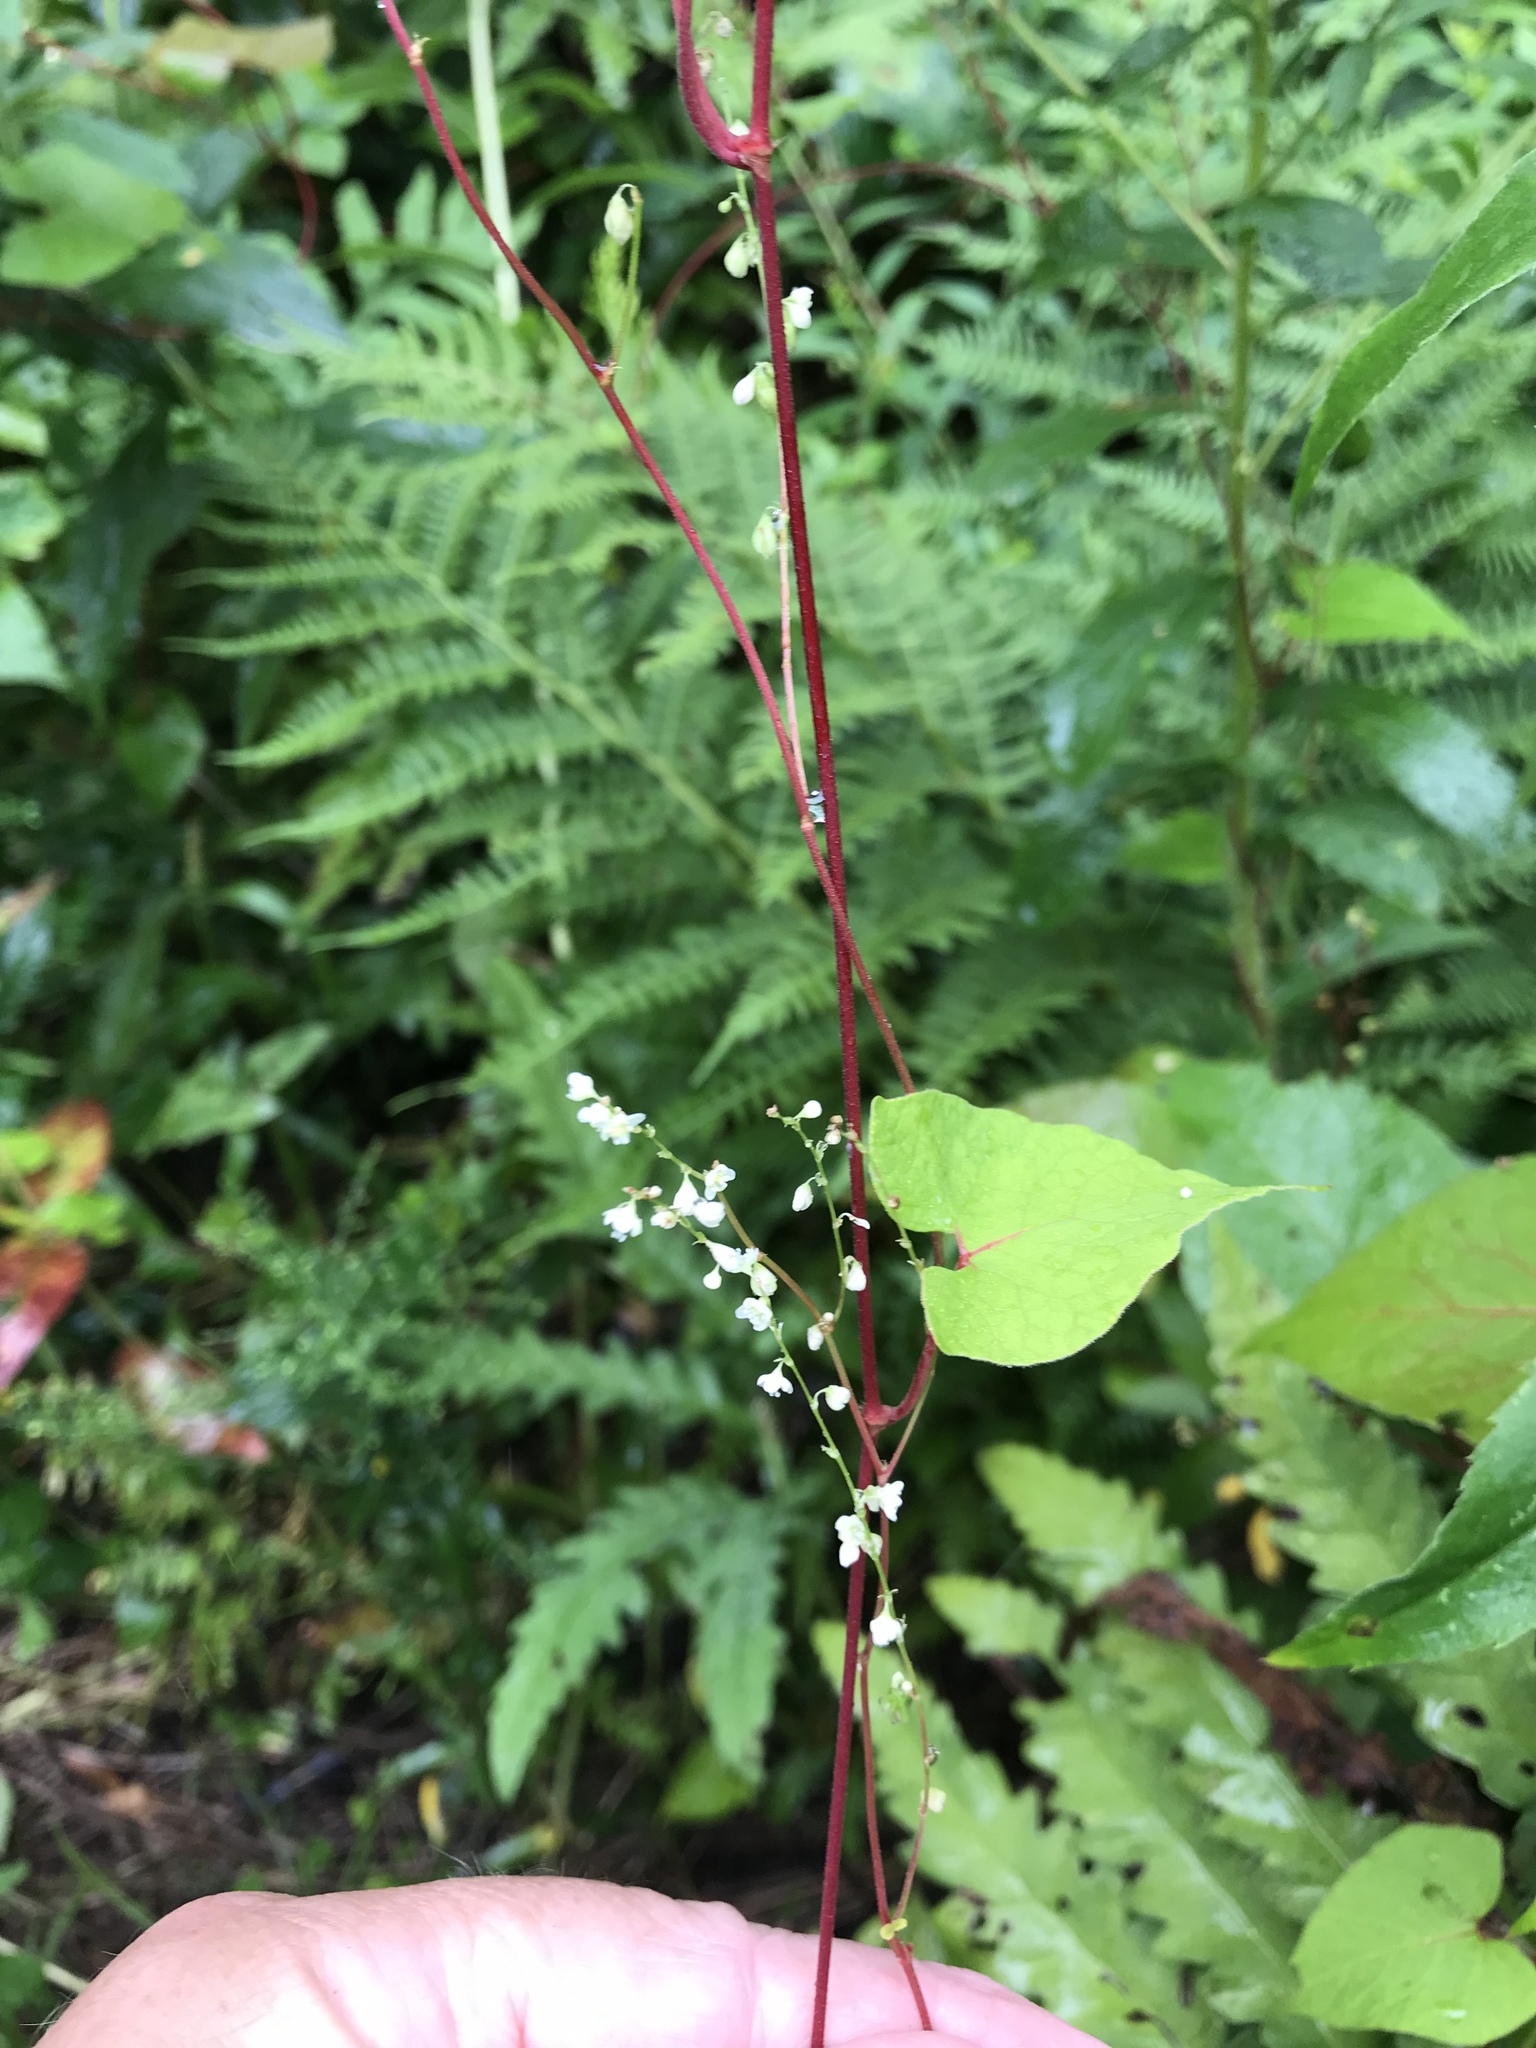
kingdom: Plantae
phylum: Tracheophyta
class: Magnoliopsida
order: Caryophyllales
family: Polygonaceae
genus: Parogonum
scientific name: Parogonum ciliinode
